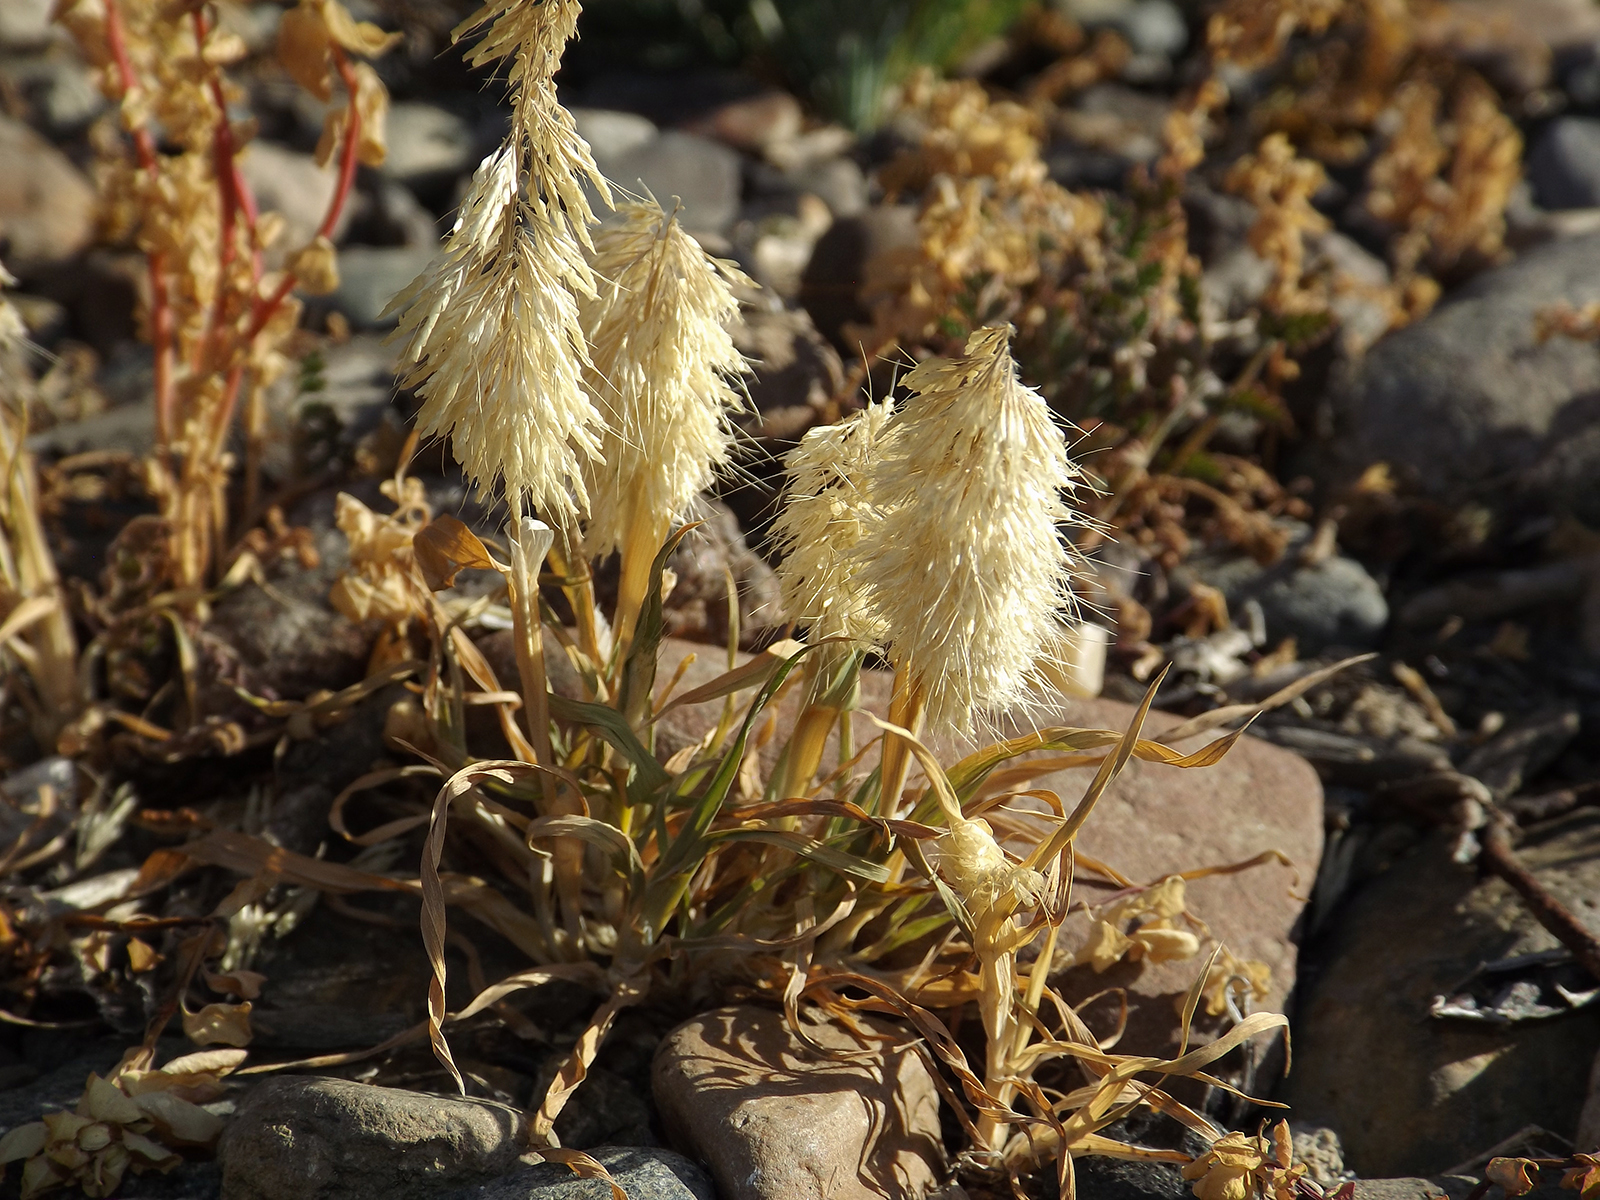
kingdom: Plantae
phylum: Tracheophyta
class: Liliopsida
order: Poales
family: Poaceae
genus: Lamarckia
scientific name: Lamarckia aurea
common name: Golden dog's-tail
